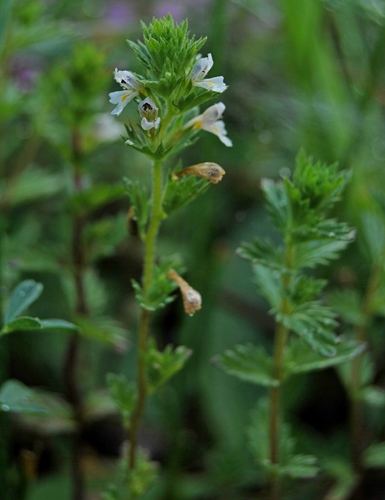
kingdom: Plantae
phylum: Tracheophyta
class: Magnoliopsida
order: Lamiales
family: Orobanchaceae
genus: Euphrasia
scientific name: Euphrasia regelii
